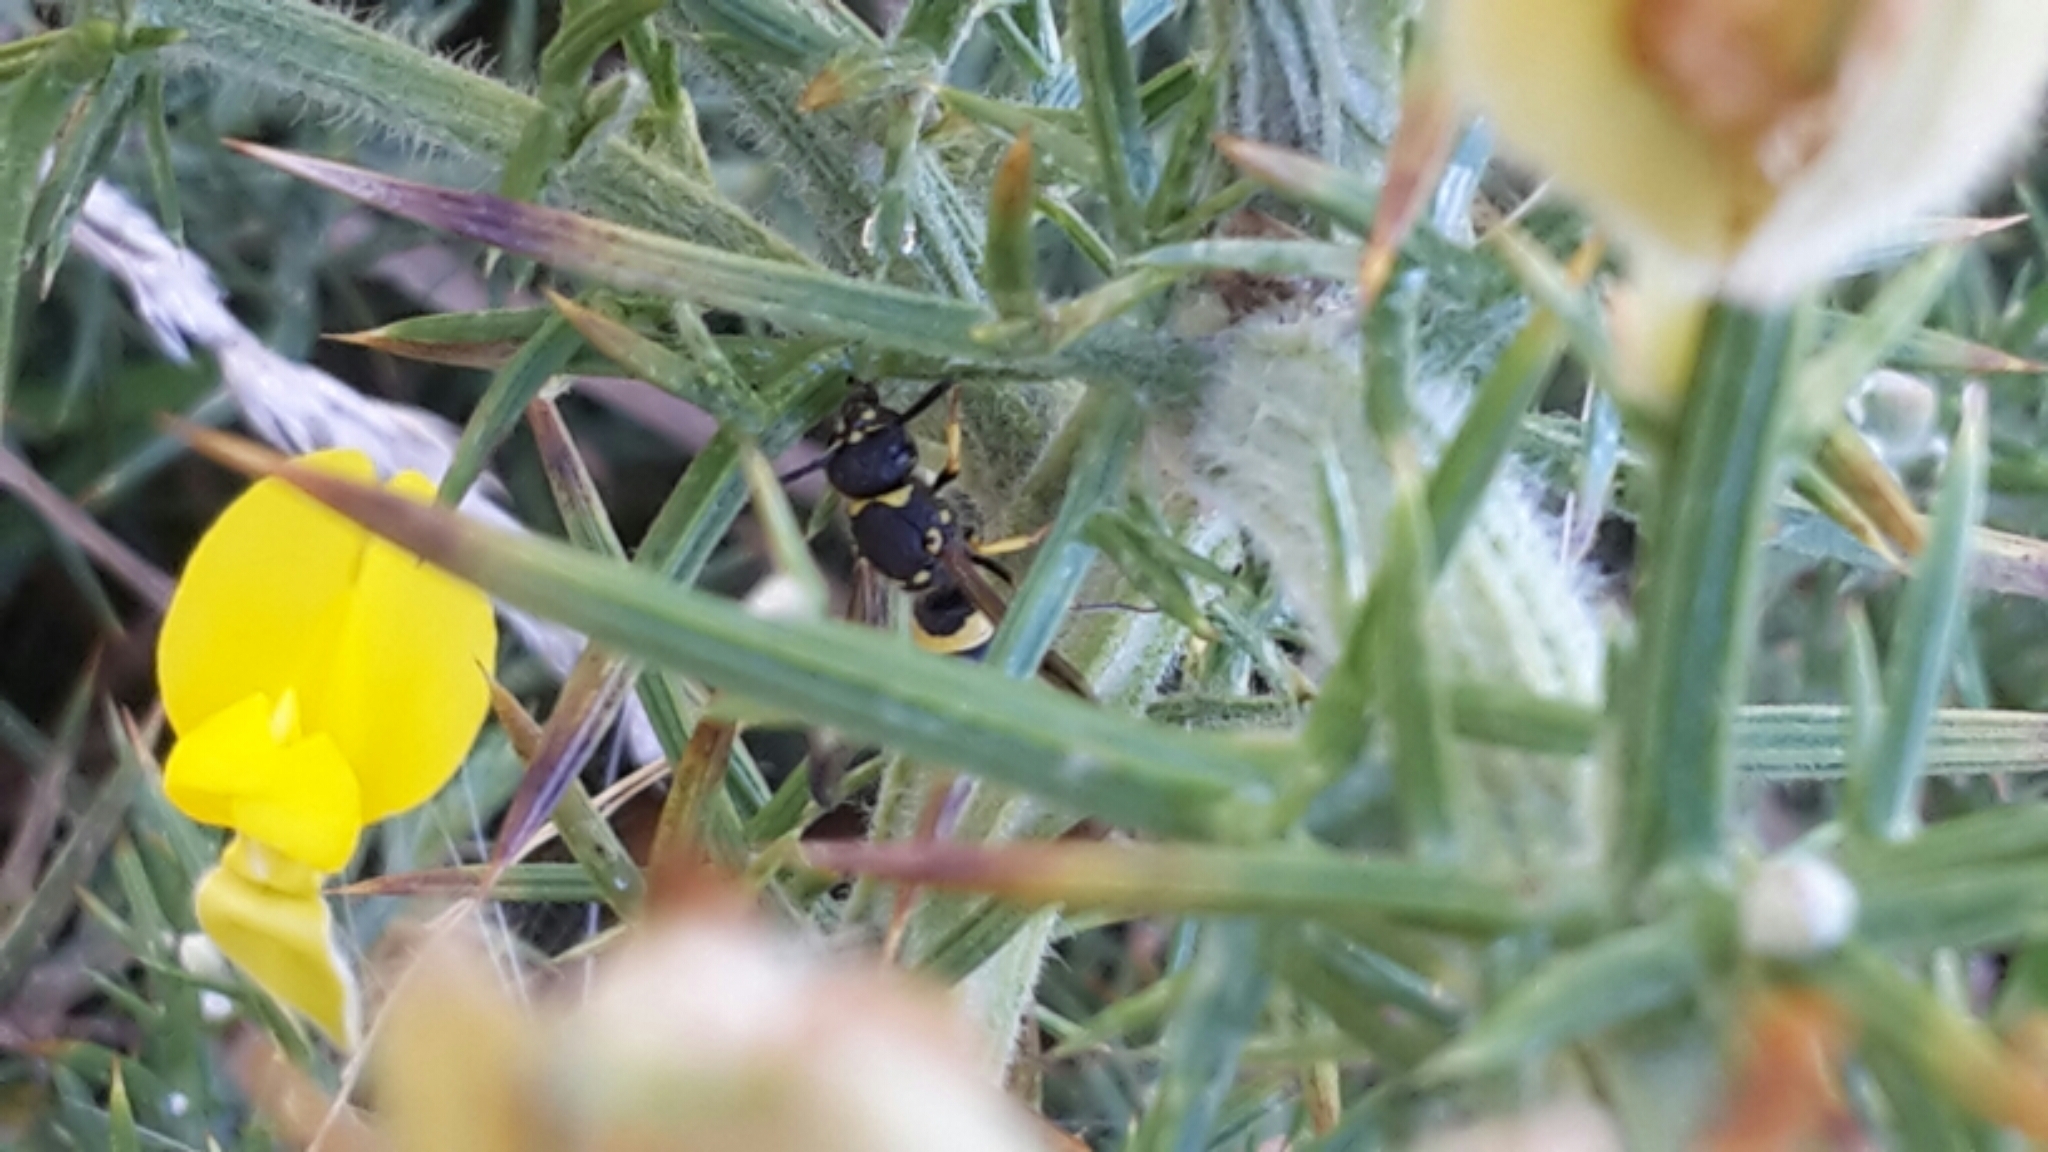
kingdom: Animalia
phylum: Arthropoda
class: Insecta
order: Hymenoptera
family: Vespidae
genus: Ancistrocerus
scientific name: Ancistrocerus gazella
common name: European tube wasp
